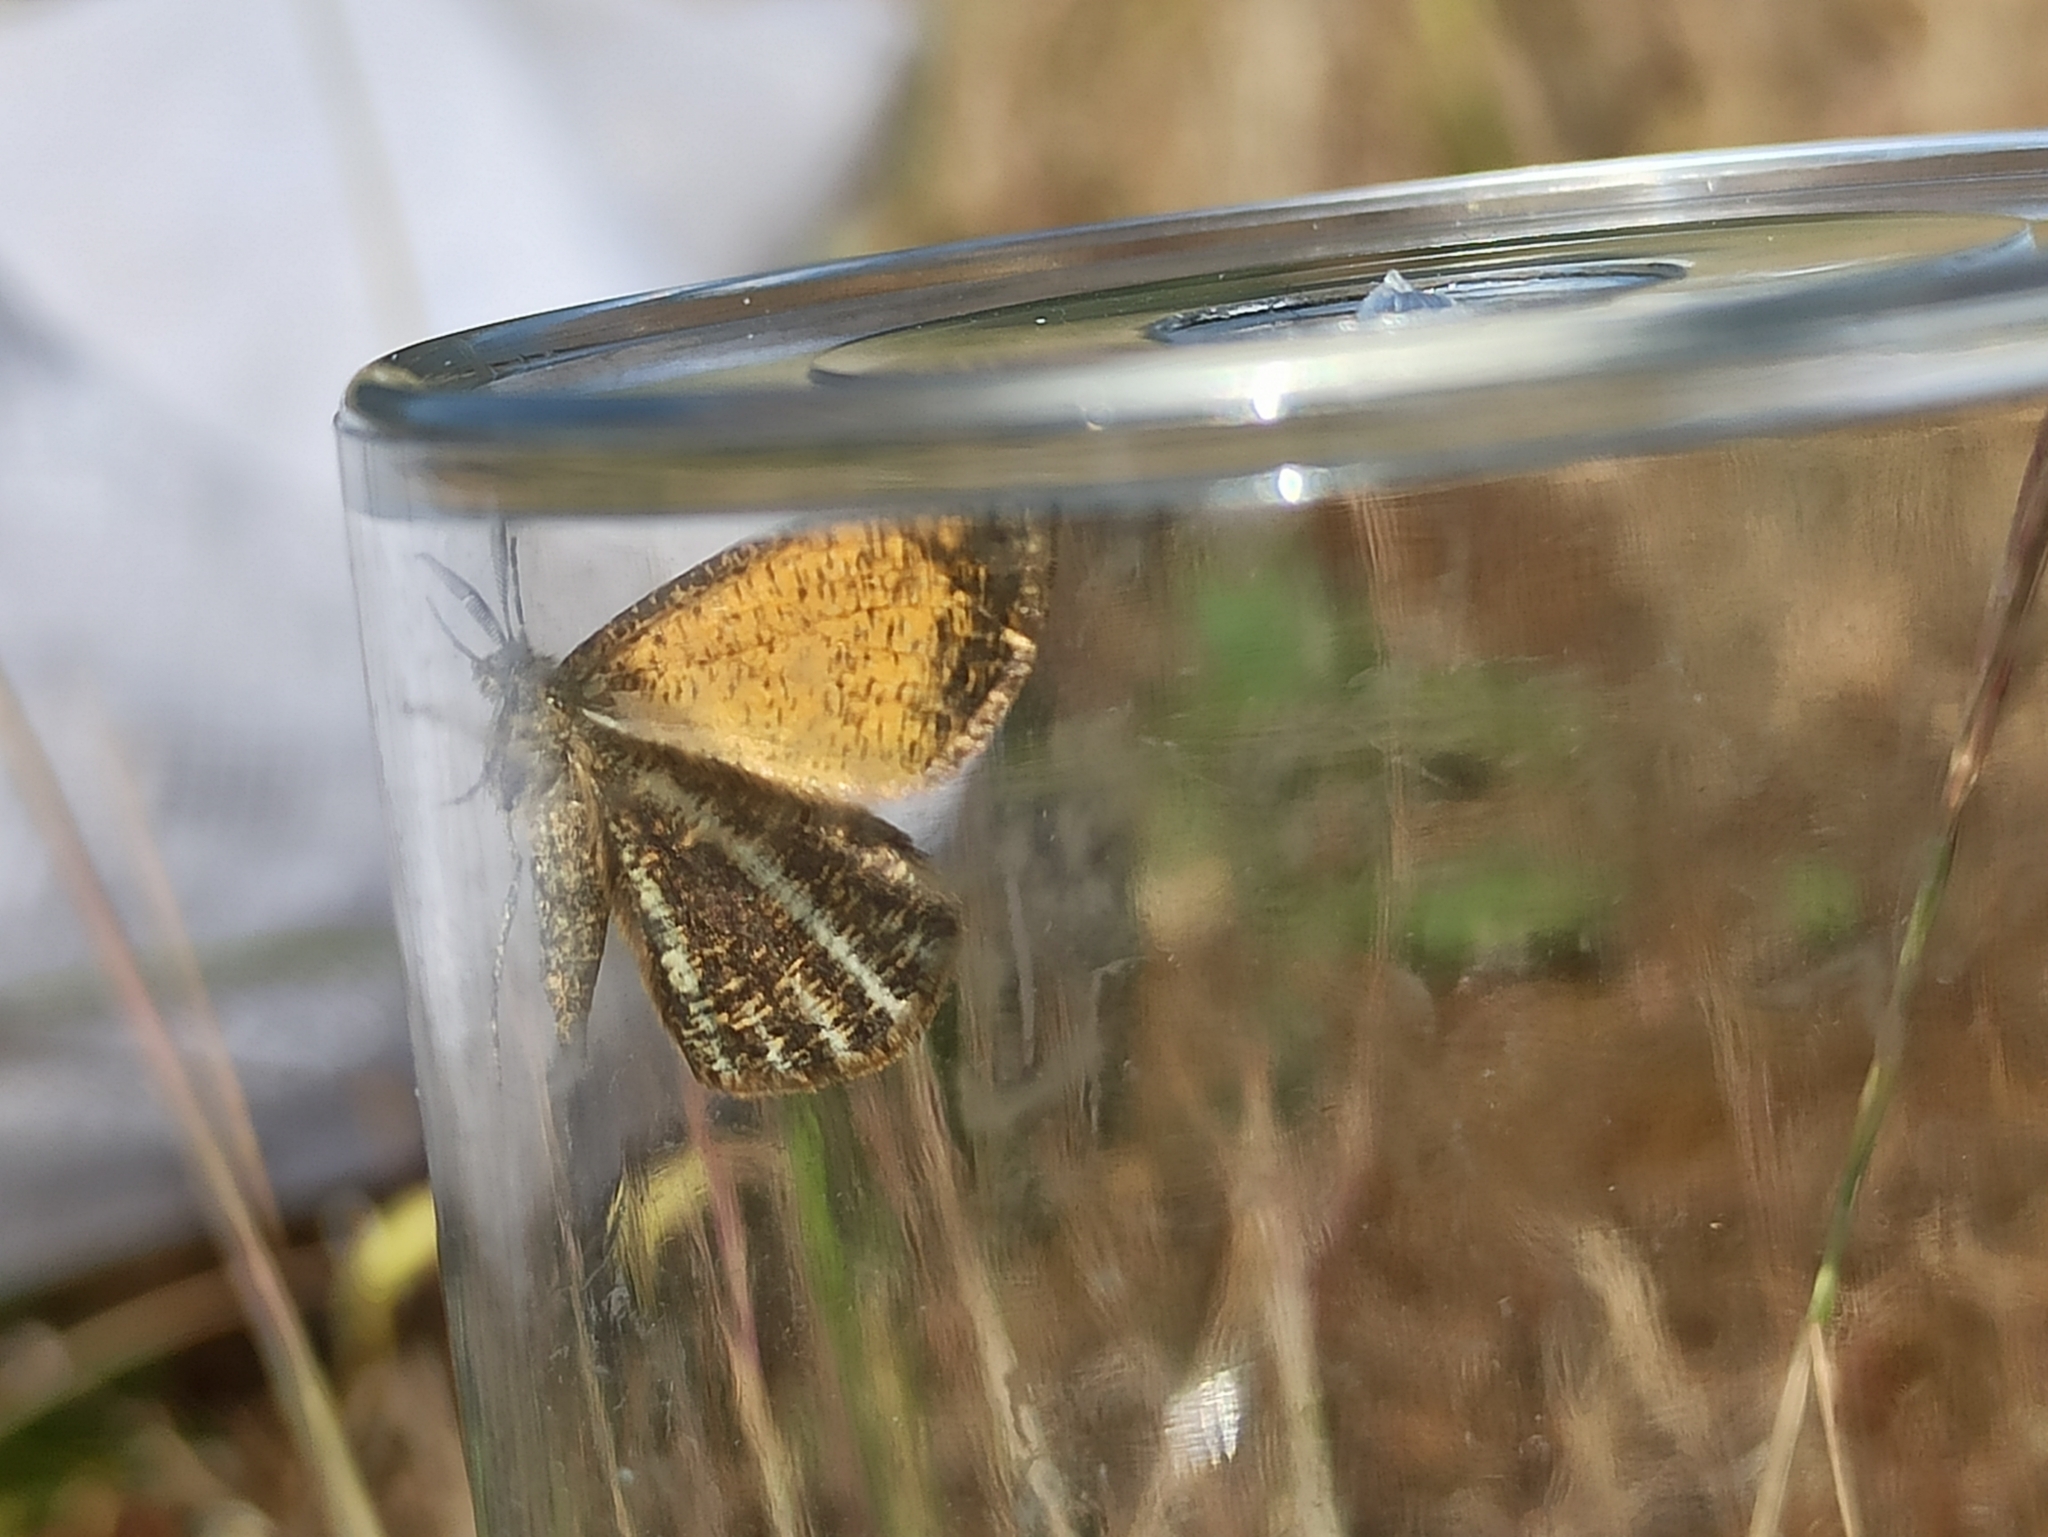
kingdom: Animalia
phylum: Arthropoda
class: Insecta
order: Lepidoptera
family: Geometridae
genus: Isturgia
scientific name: Isturgia limbaria
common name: Frosted yellow
